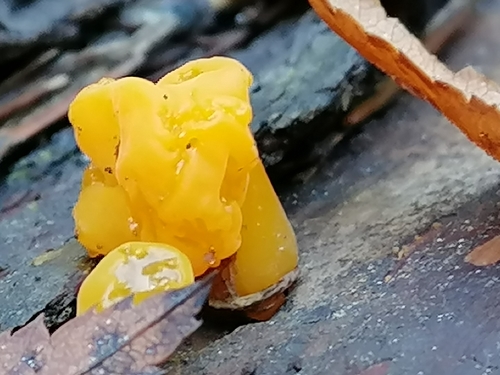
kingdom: Fungi
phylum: Basidiomycota
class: Tremellomycetes
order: Tremellales
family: Tremellaceae
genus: Tremella
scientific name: Tremella mesenterica
